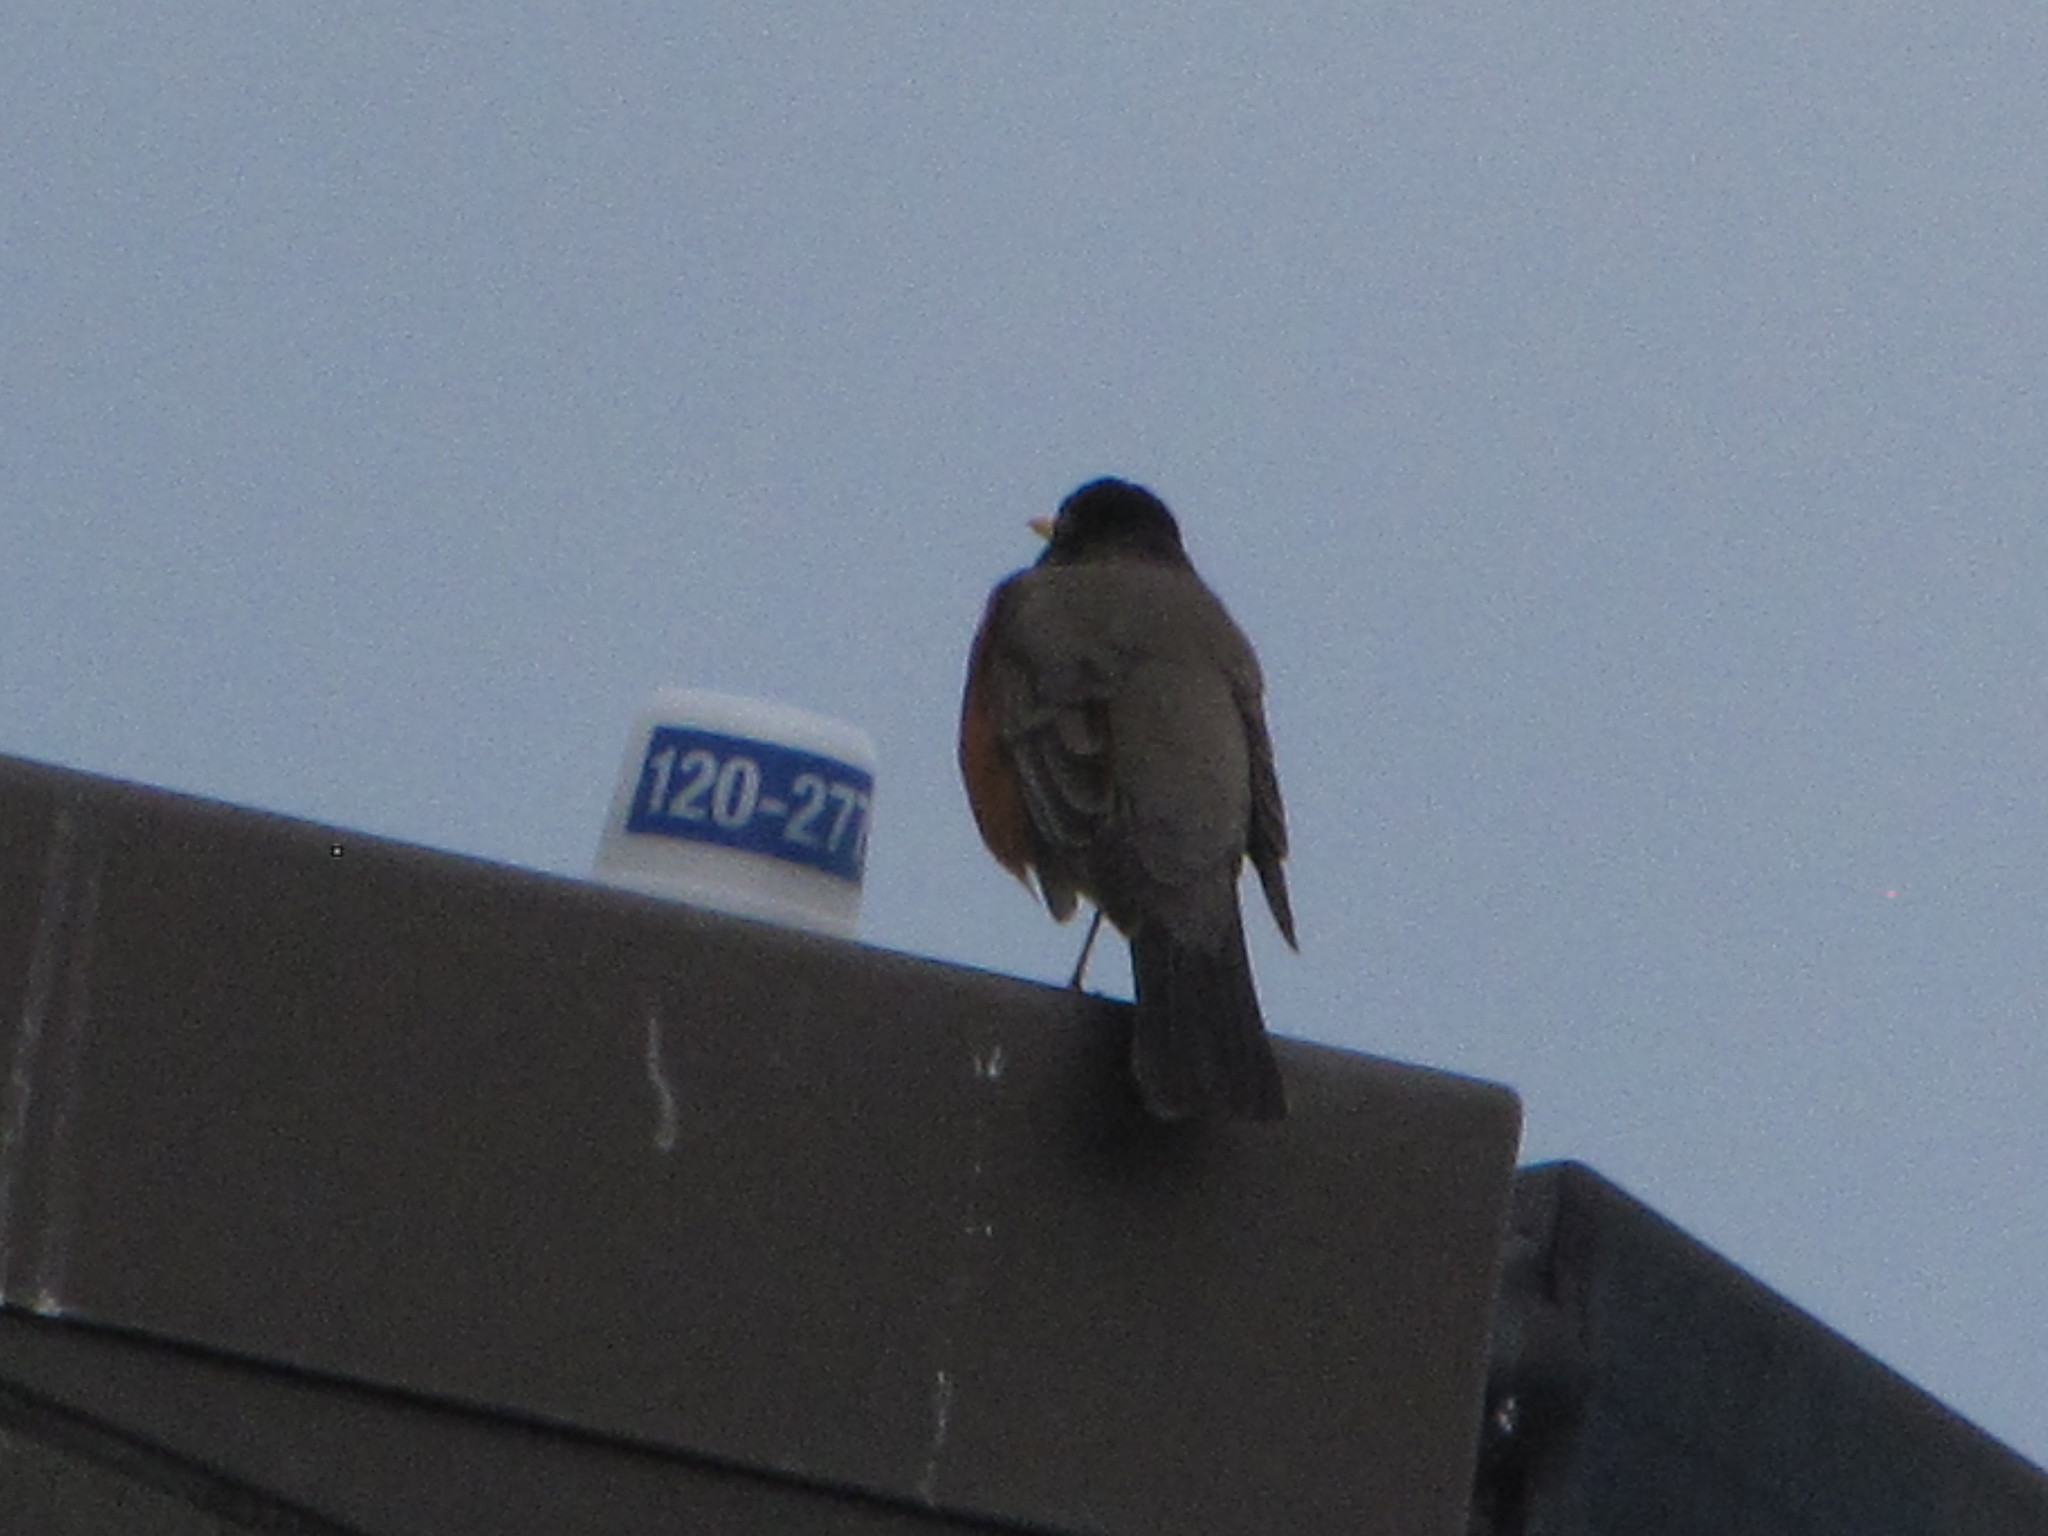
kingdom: Animalia
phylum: Chordata
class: Aves
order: Passeriformes
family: Turdidae
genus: Turdus
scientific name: Turdus migratorius
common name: American robin
